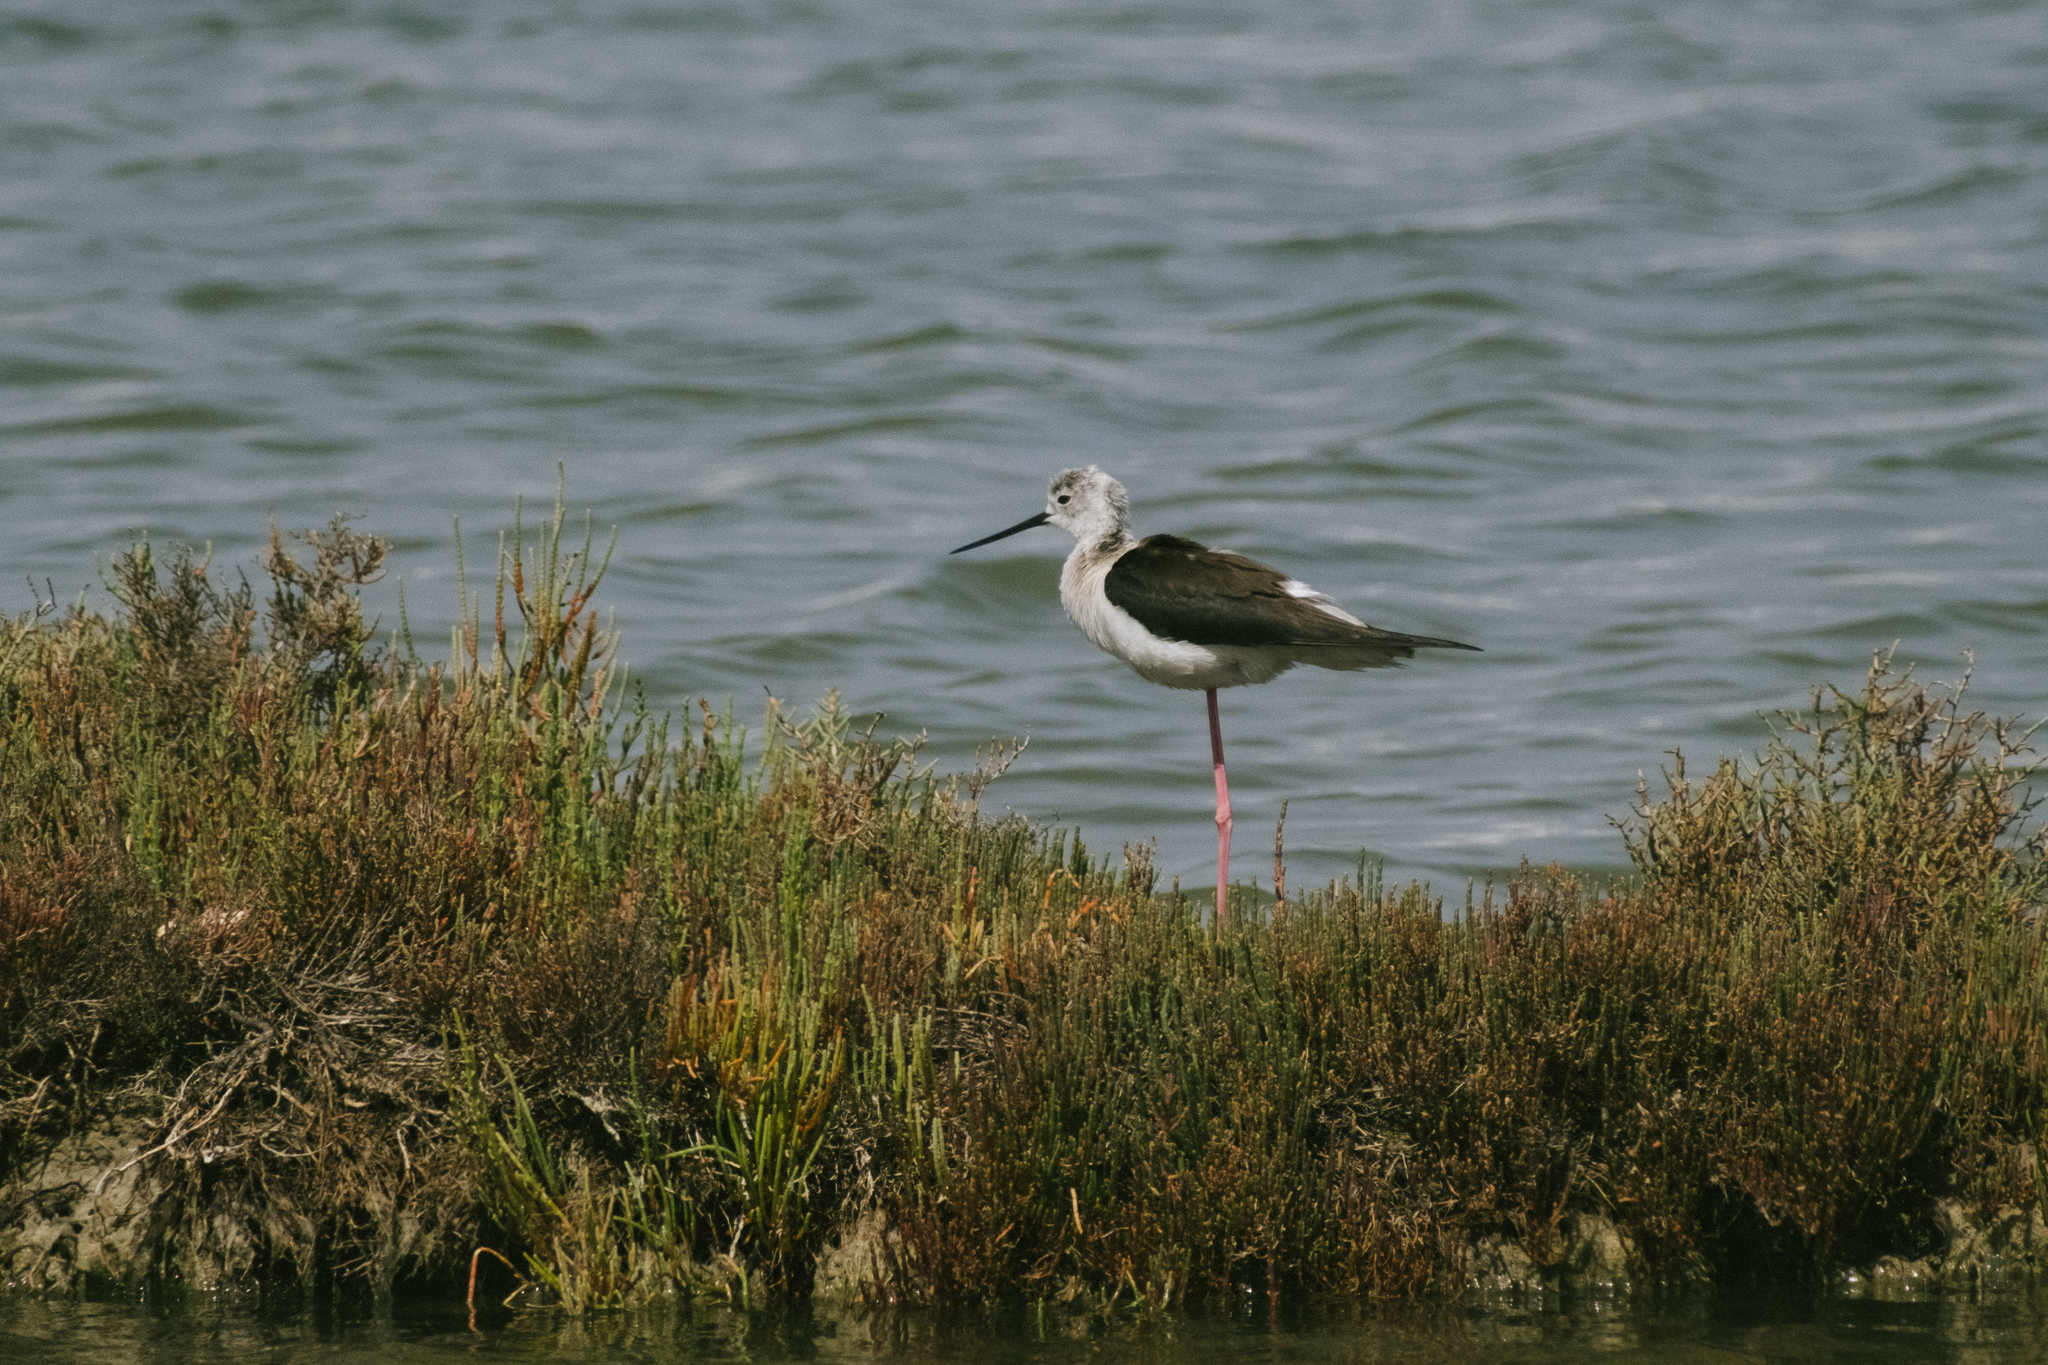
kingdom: Animalia
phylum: Chordata
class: Aves
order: Charadriiformes
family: Recurvirostridae
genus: Himantopus
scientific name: Himantopus himantopus
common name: Black-winged stilt
